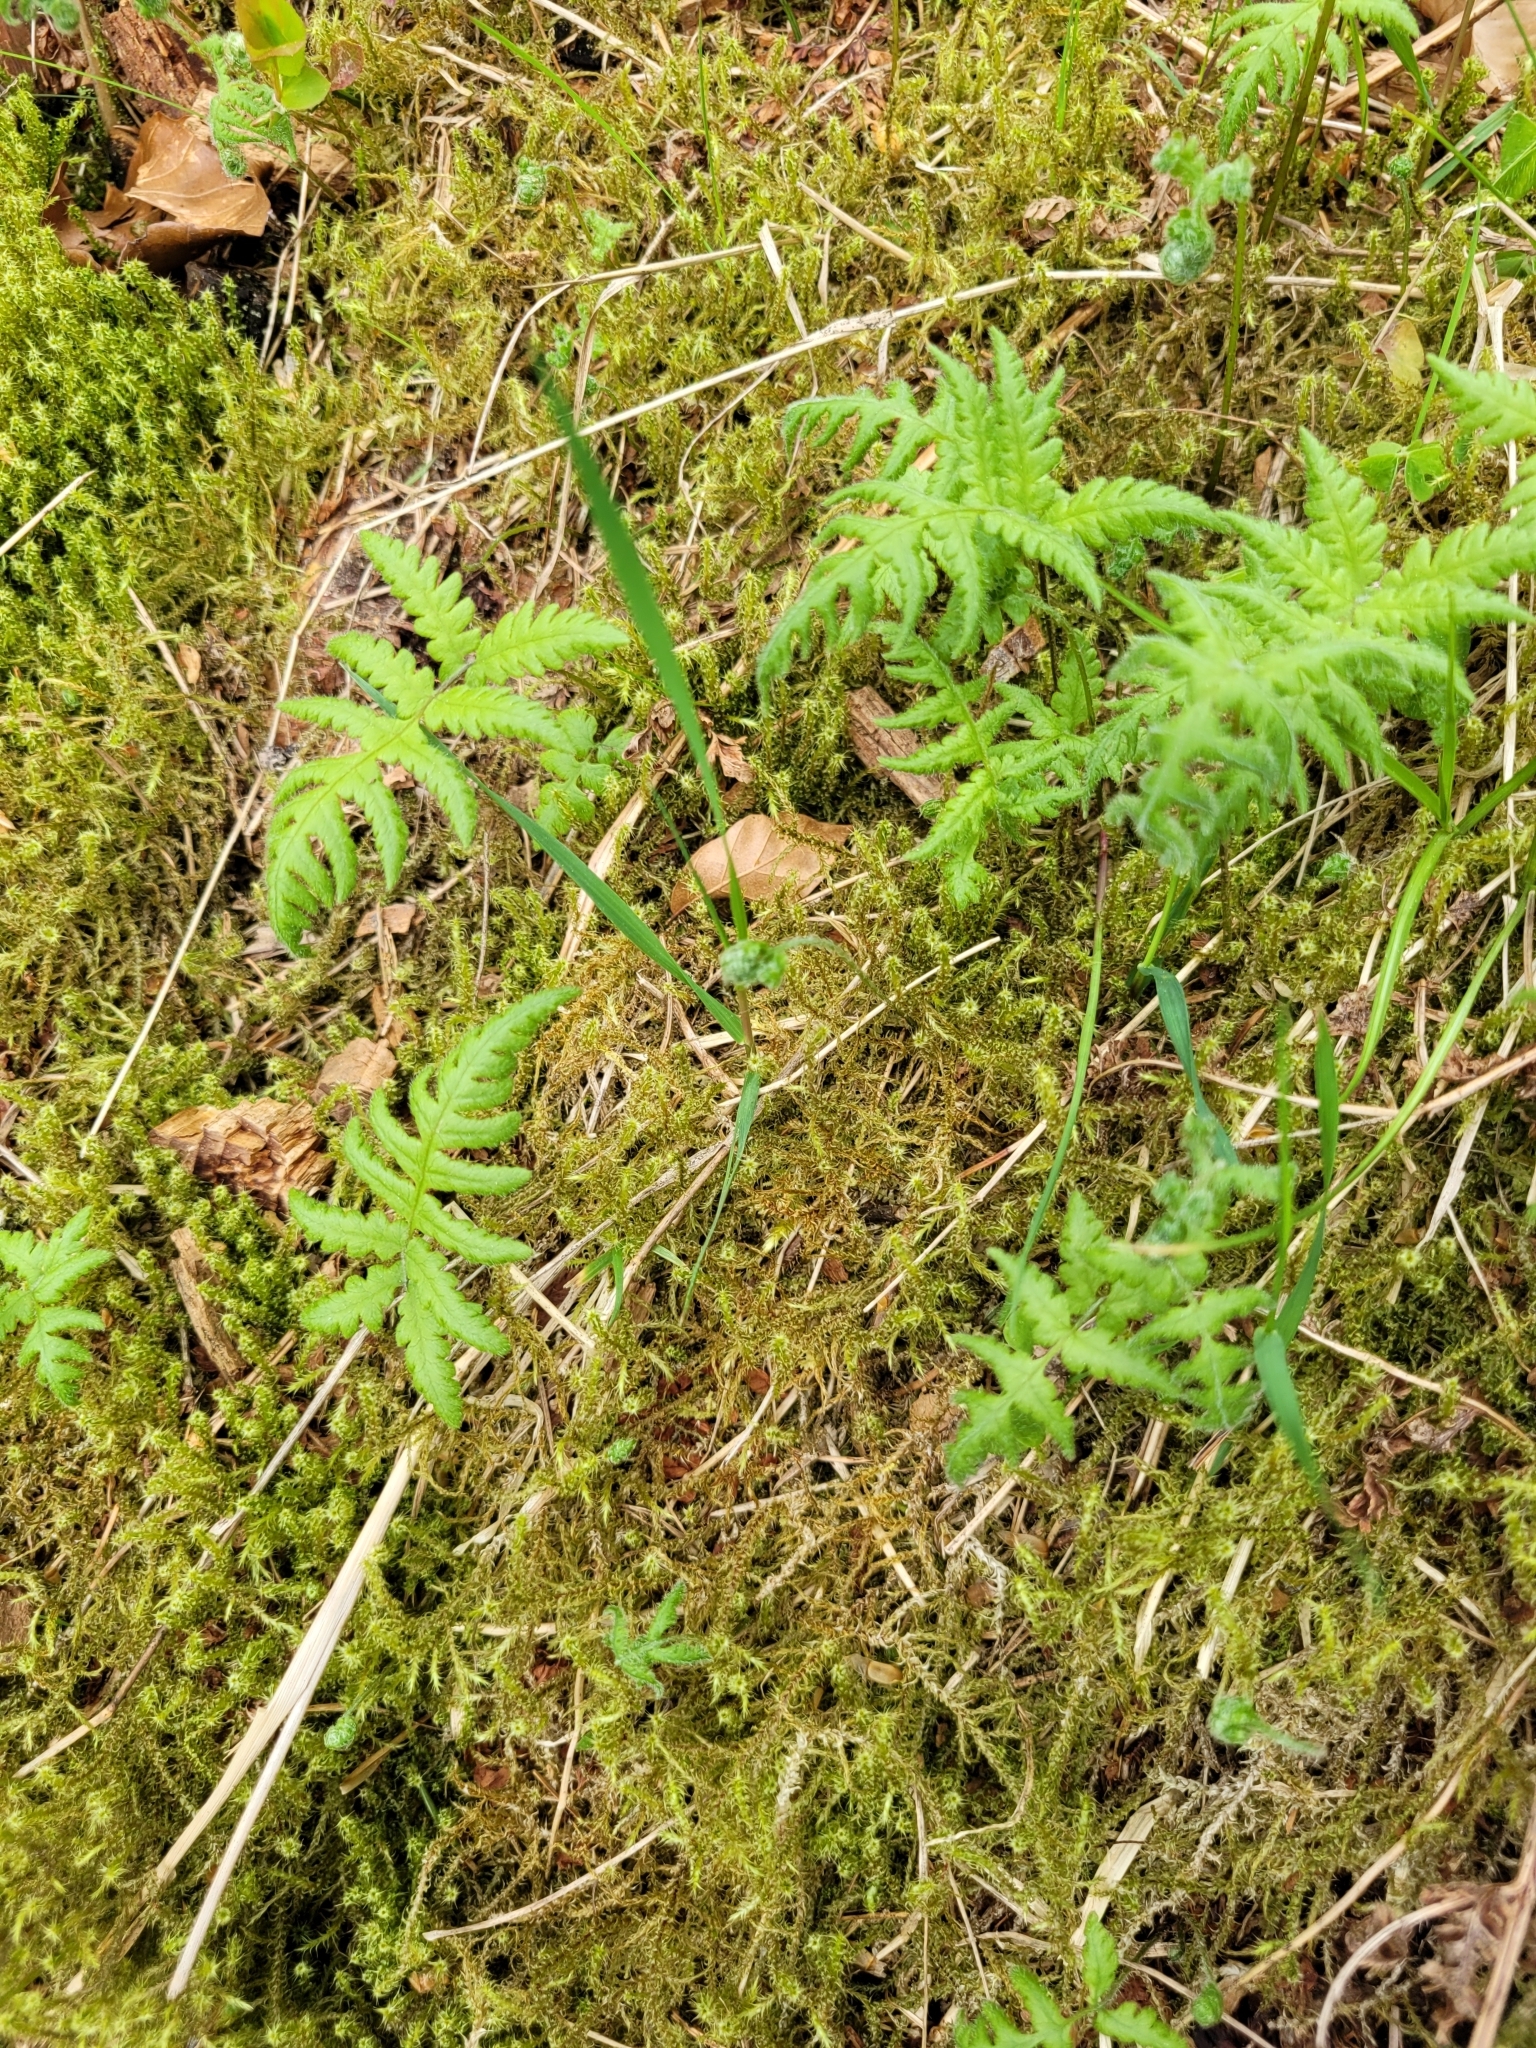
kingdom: Plantae
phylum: Tracheophyta
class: Polypodiopsida
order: Polypodiales
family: Thelypteridaceae
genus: Phegopteris
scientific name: Phegopteris connectilis
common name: Beech fern
